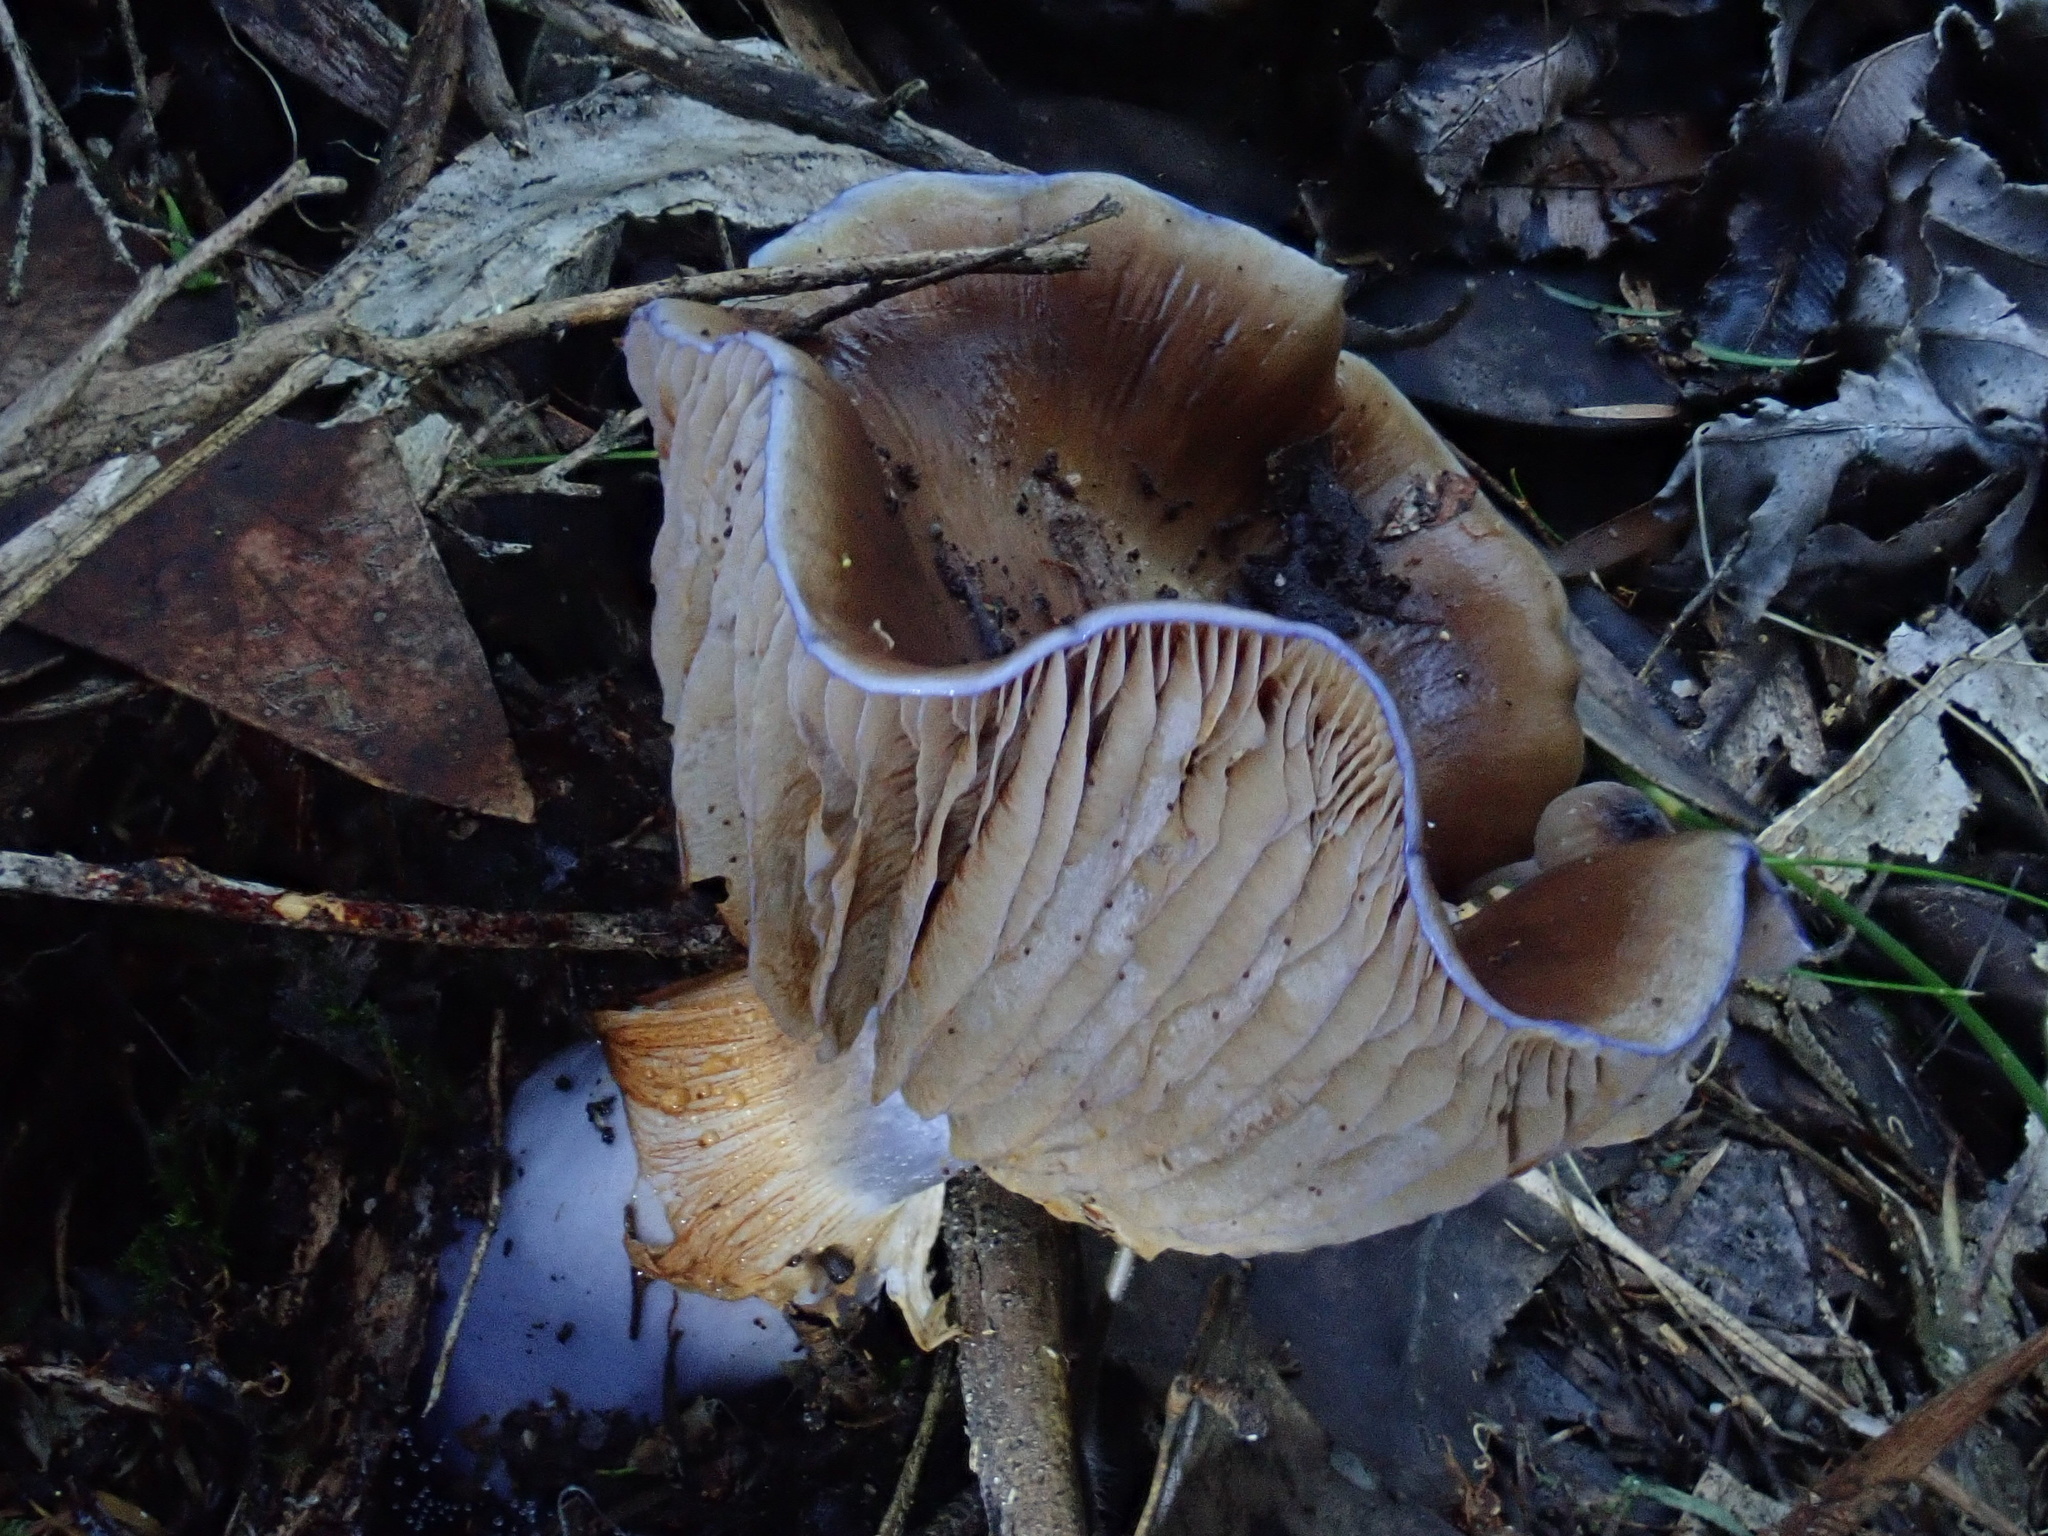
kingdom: Fungi
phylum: Basidiomycota
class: Agaricomycetes
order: Agaricales
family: Cortinariaceae
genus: Cortinarius
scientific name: Cortinarius archeri
